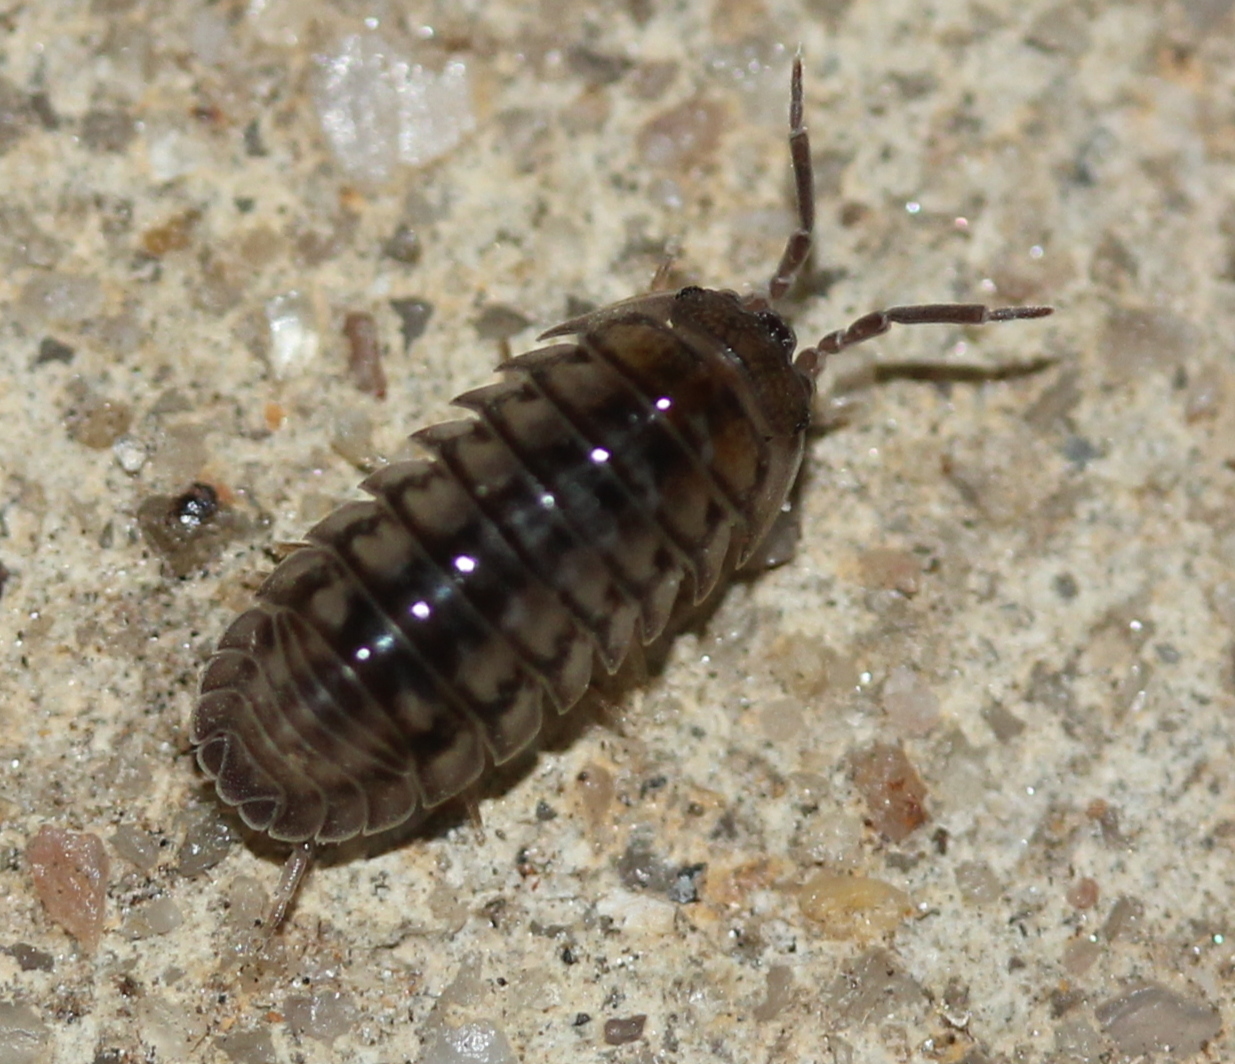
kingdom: Animalia
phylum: Arthropoda
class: Malacostraca
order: Isopoda
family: Armadillidiidae
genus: Armadillidium
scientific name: Armadillidium nasatum
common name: Isopod
